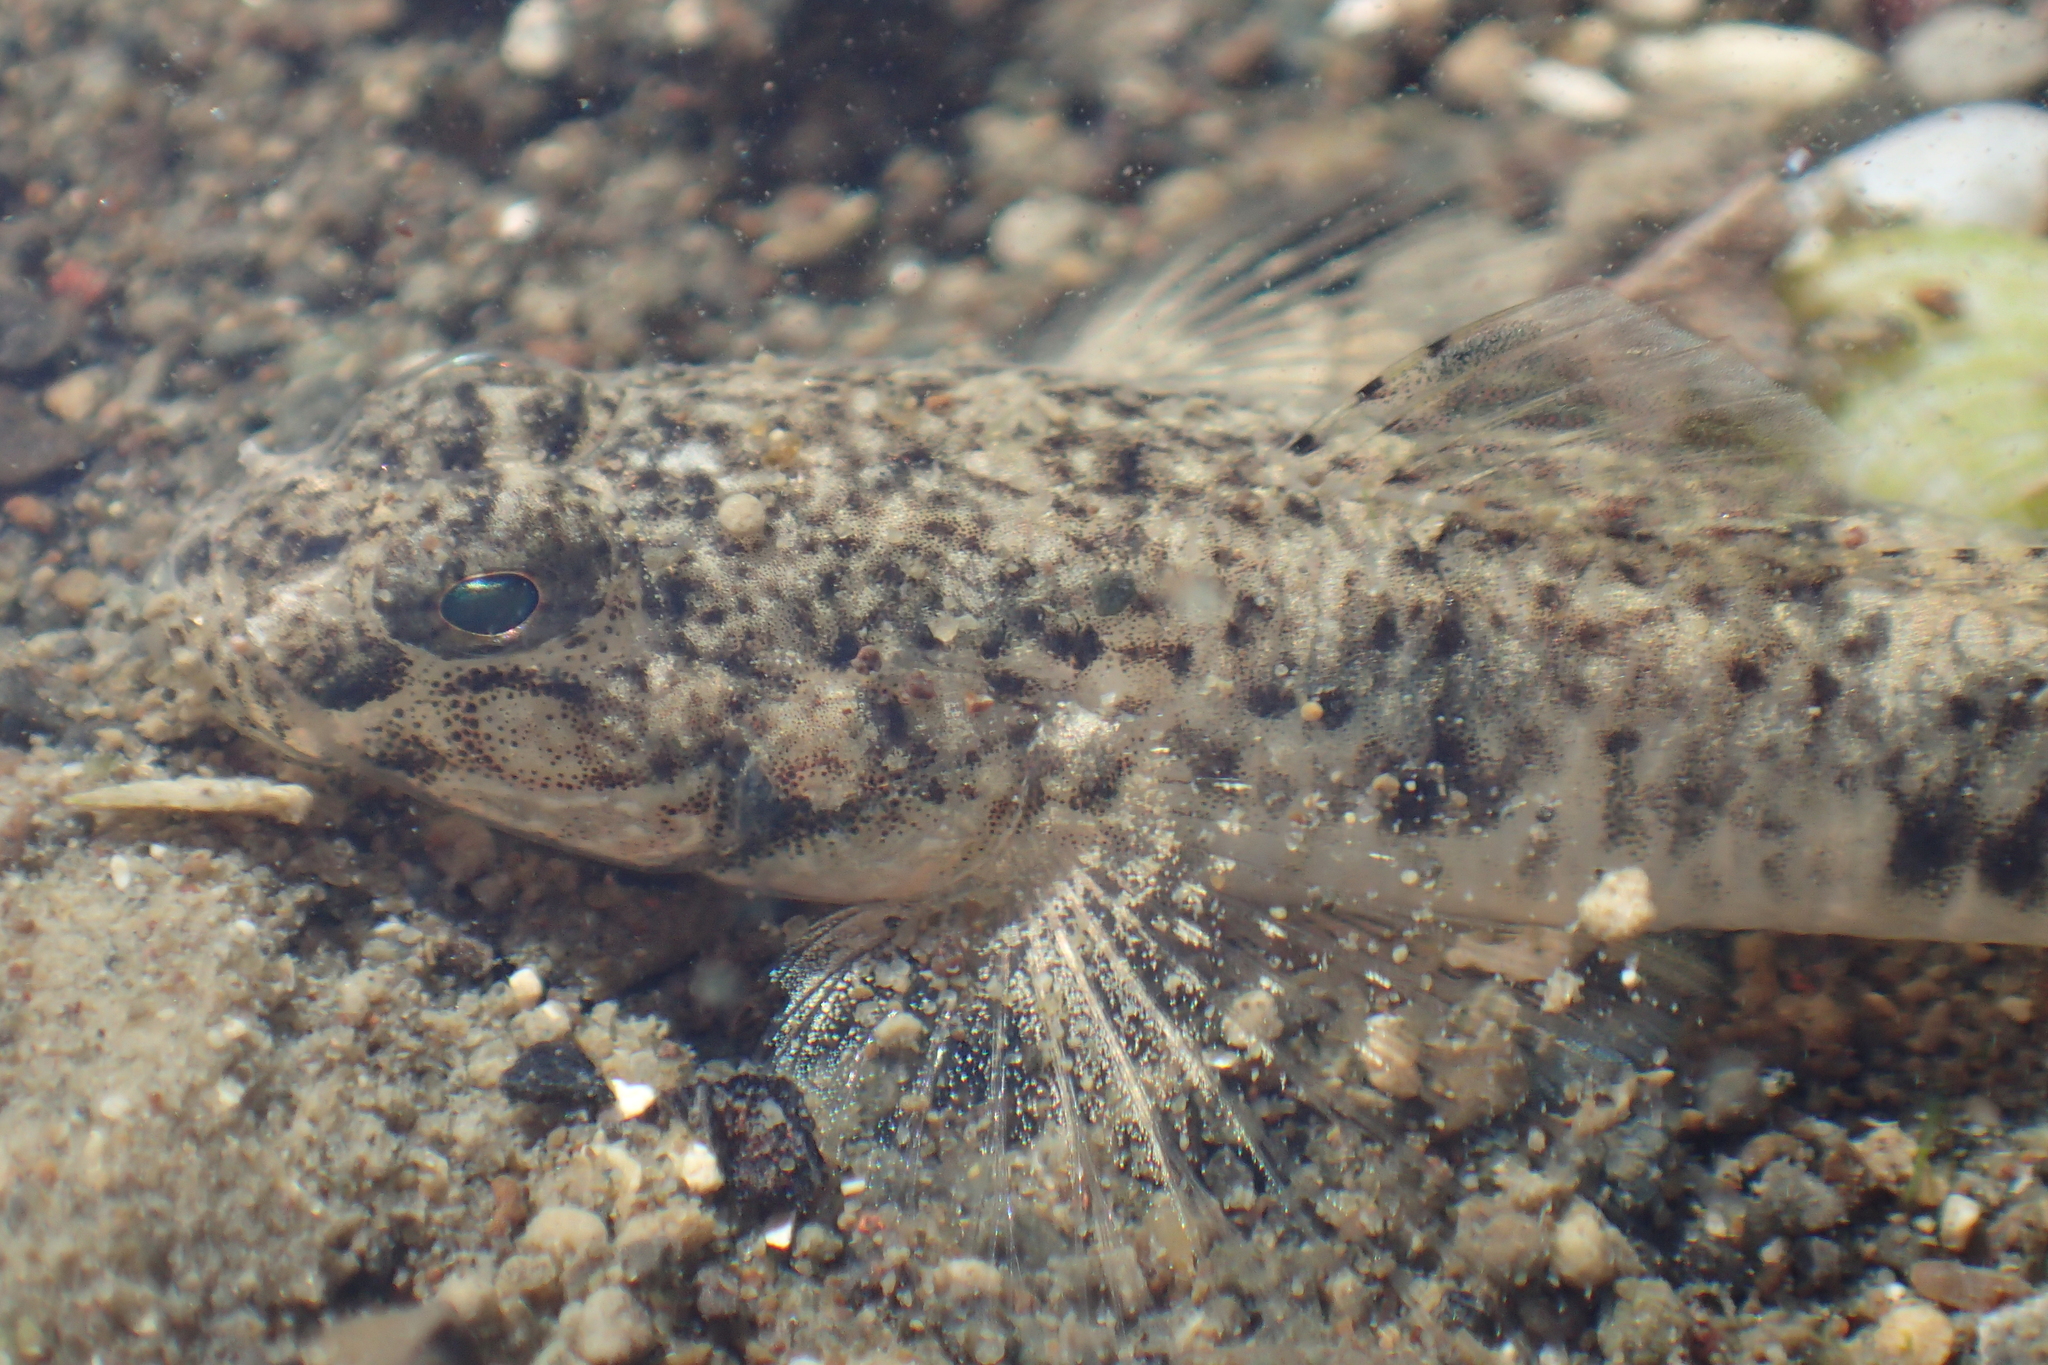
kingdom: Animalia
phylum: Chordata
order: Perciformes
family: Gobiidae
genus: Favonigobius
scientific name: Favonigobius exquisitus
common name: Exquisite sand-goby
